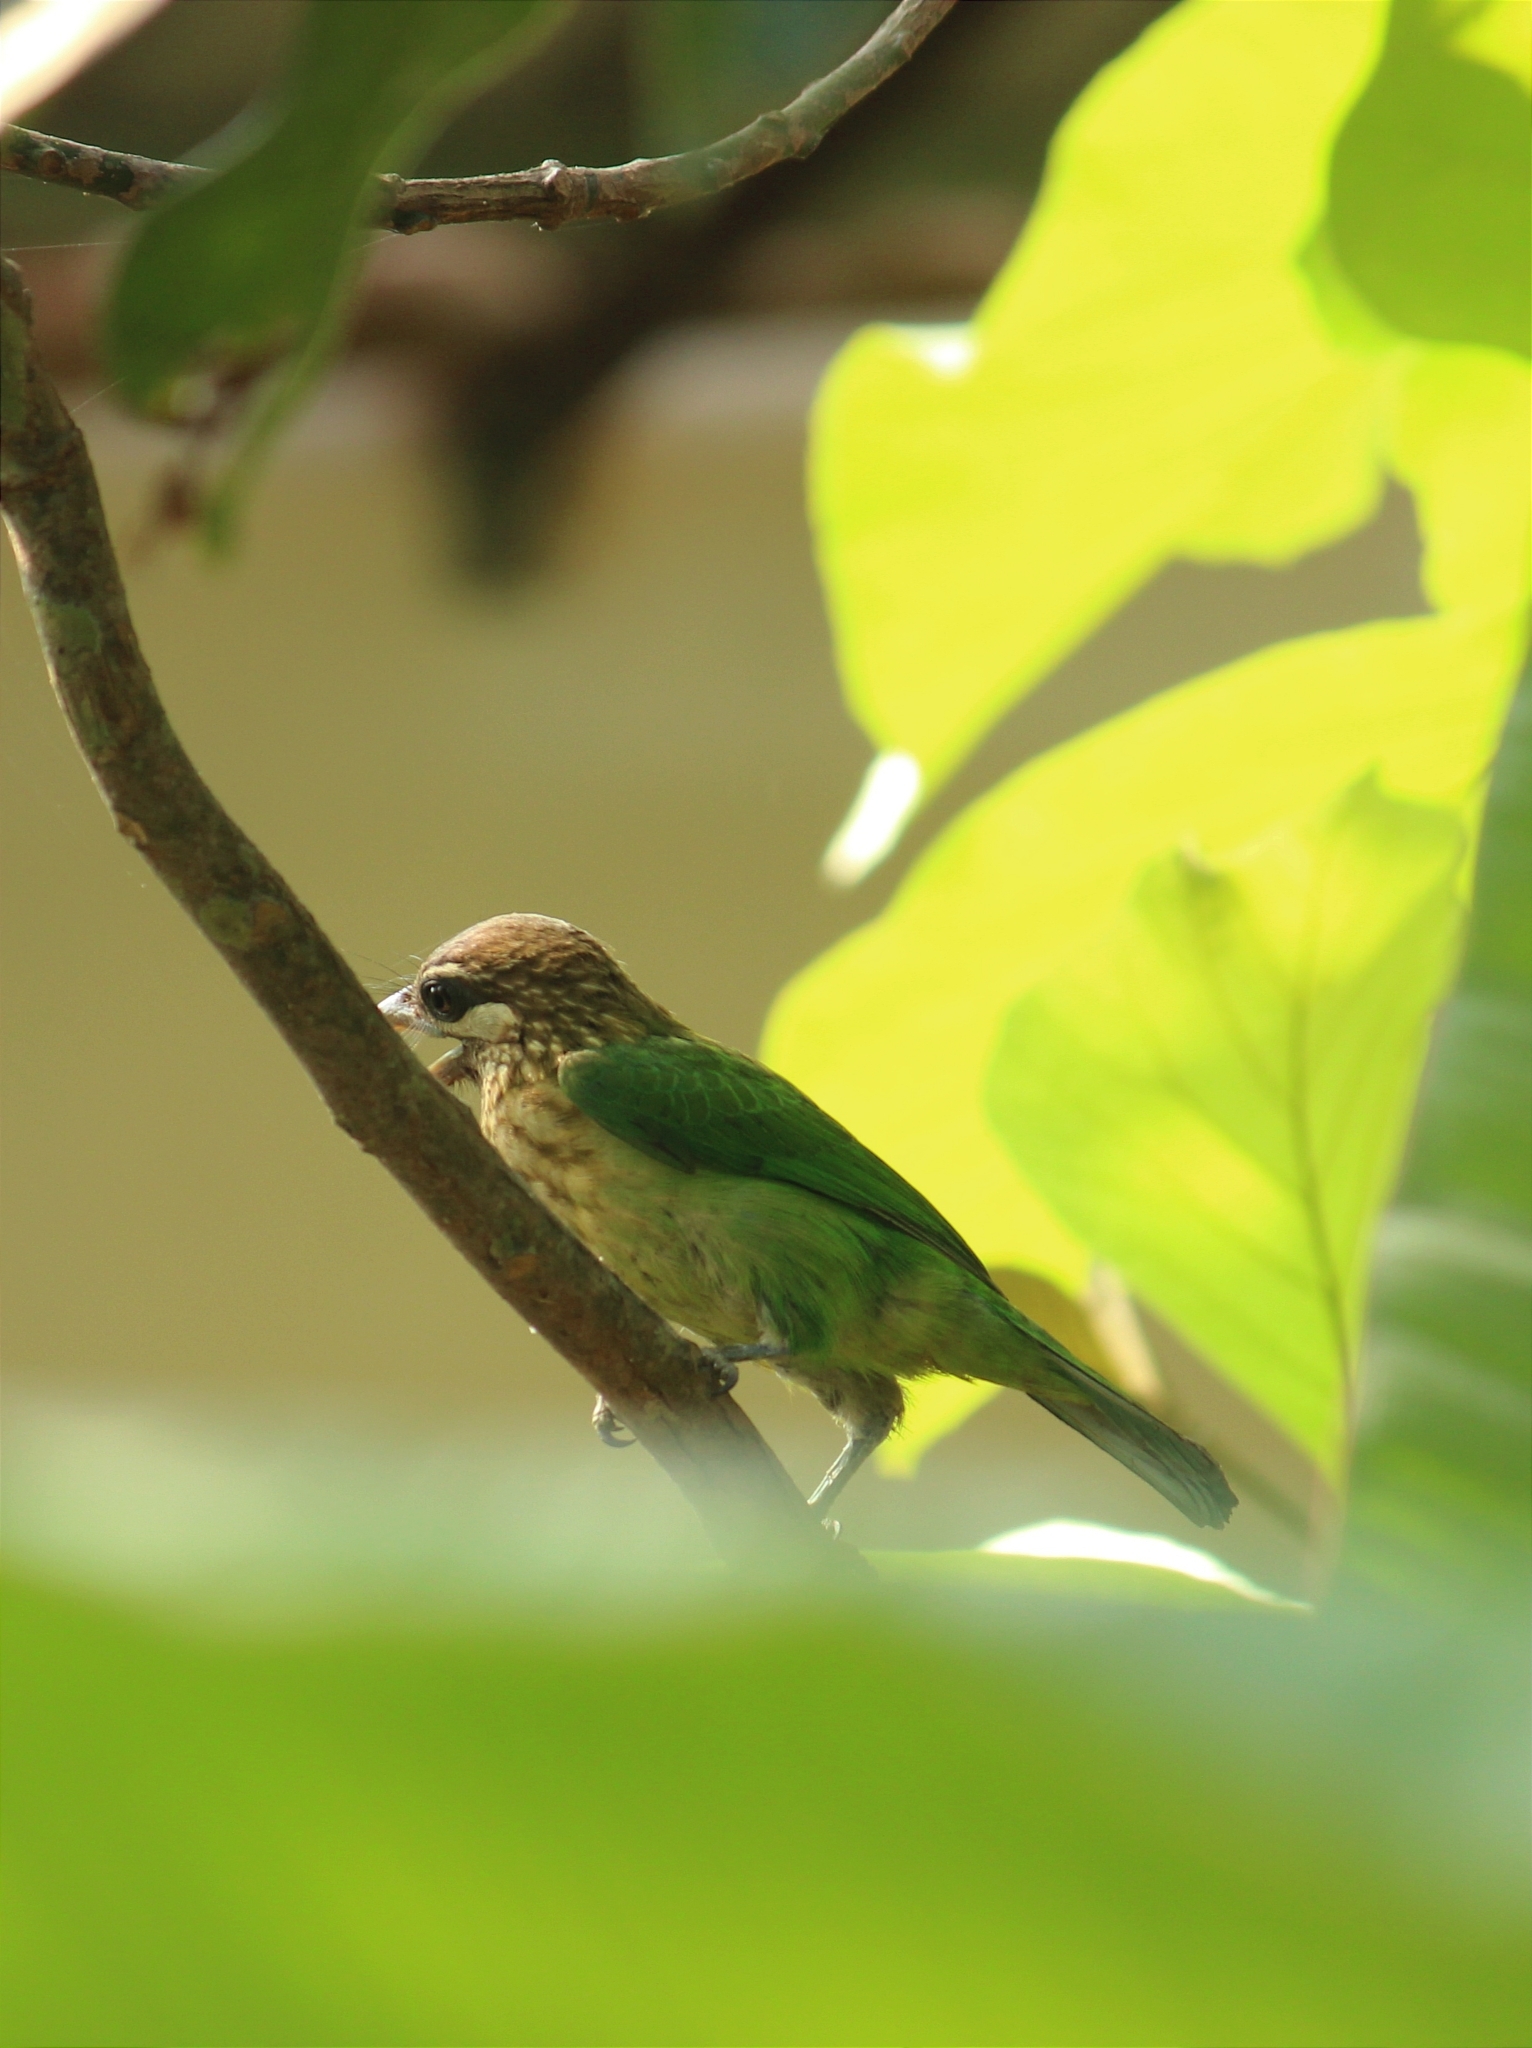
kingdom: Animalia
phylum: Chordata
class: Aves
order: Piciformes
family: Megalaimidae
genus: Psilopogon
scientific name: Psilopogon viridis
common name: White-cheeked barbet
